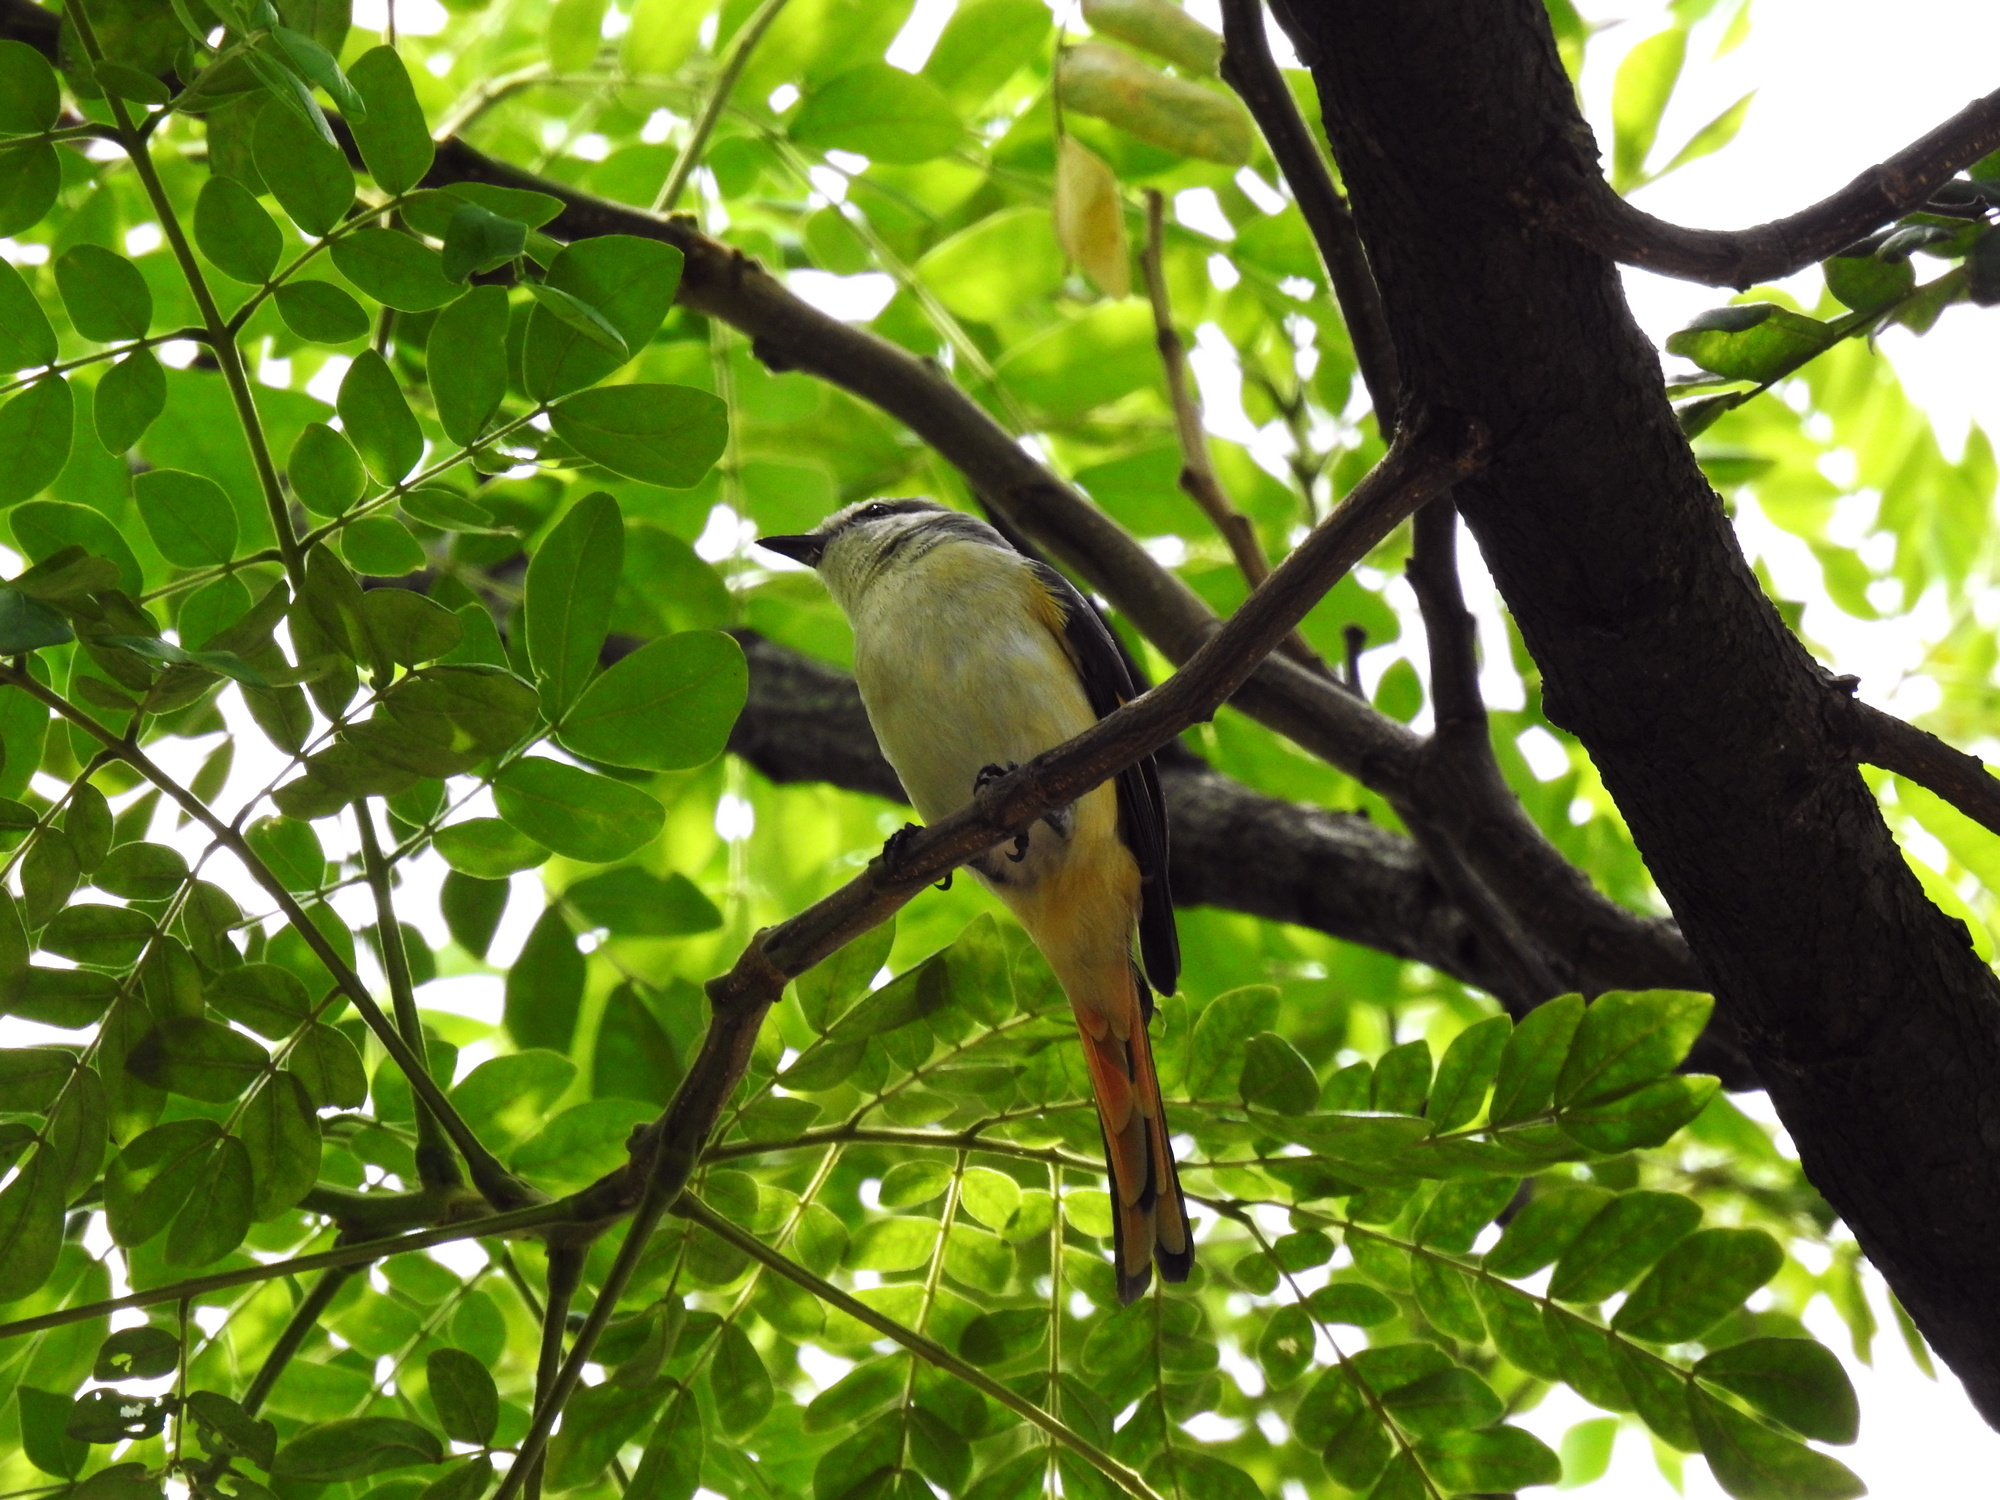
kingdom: Animalia
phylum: Chordata
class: Aves
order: Passeriformes
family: Campephagidae
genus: Pericrocotus
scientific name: Pericrocotus cinnamomeus
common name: Small minivet
